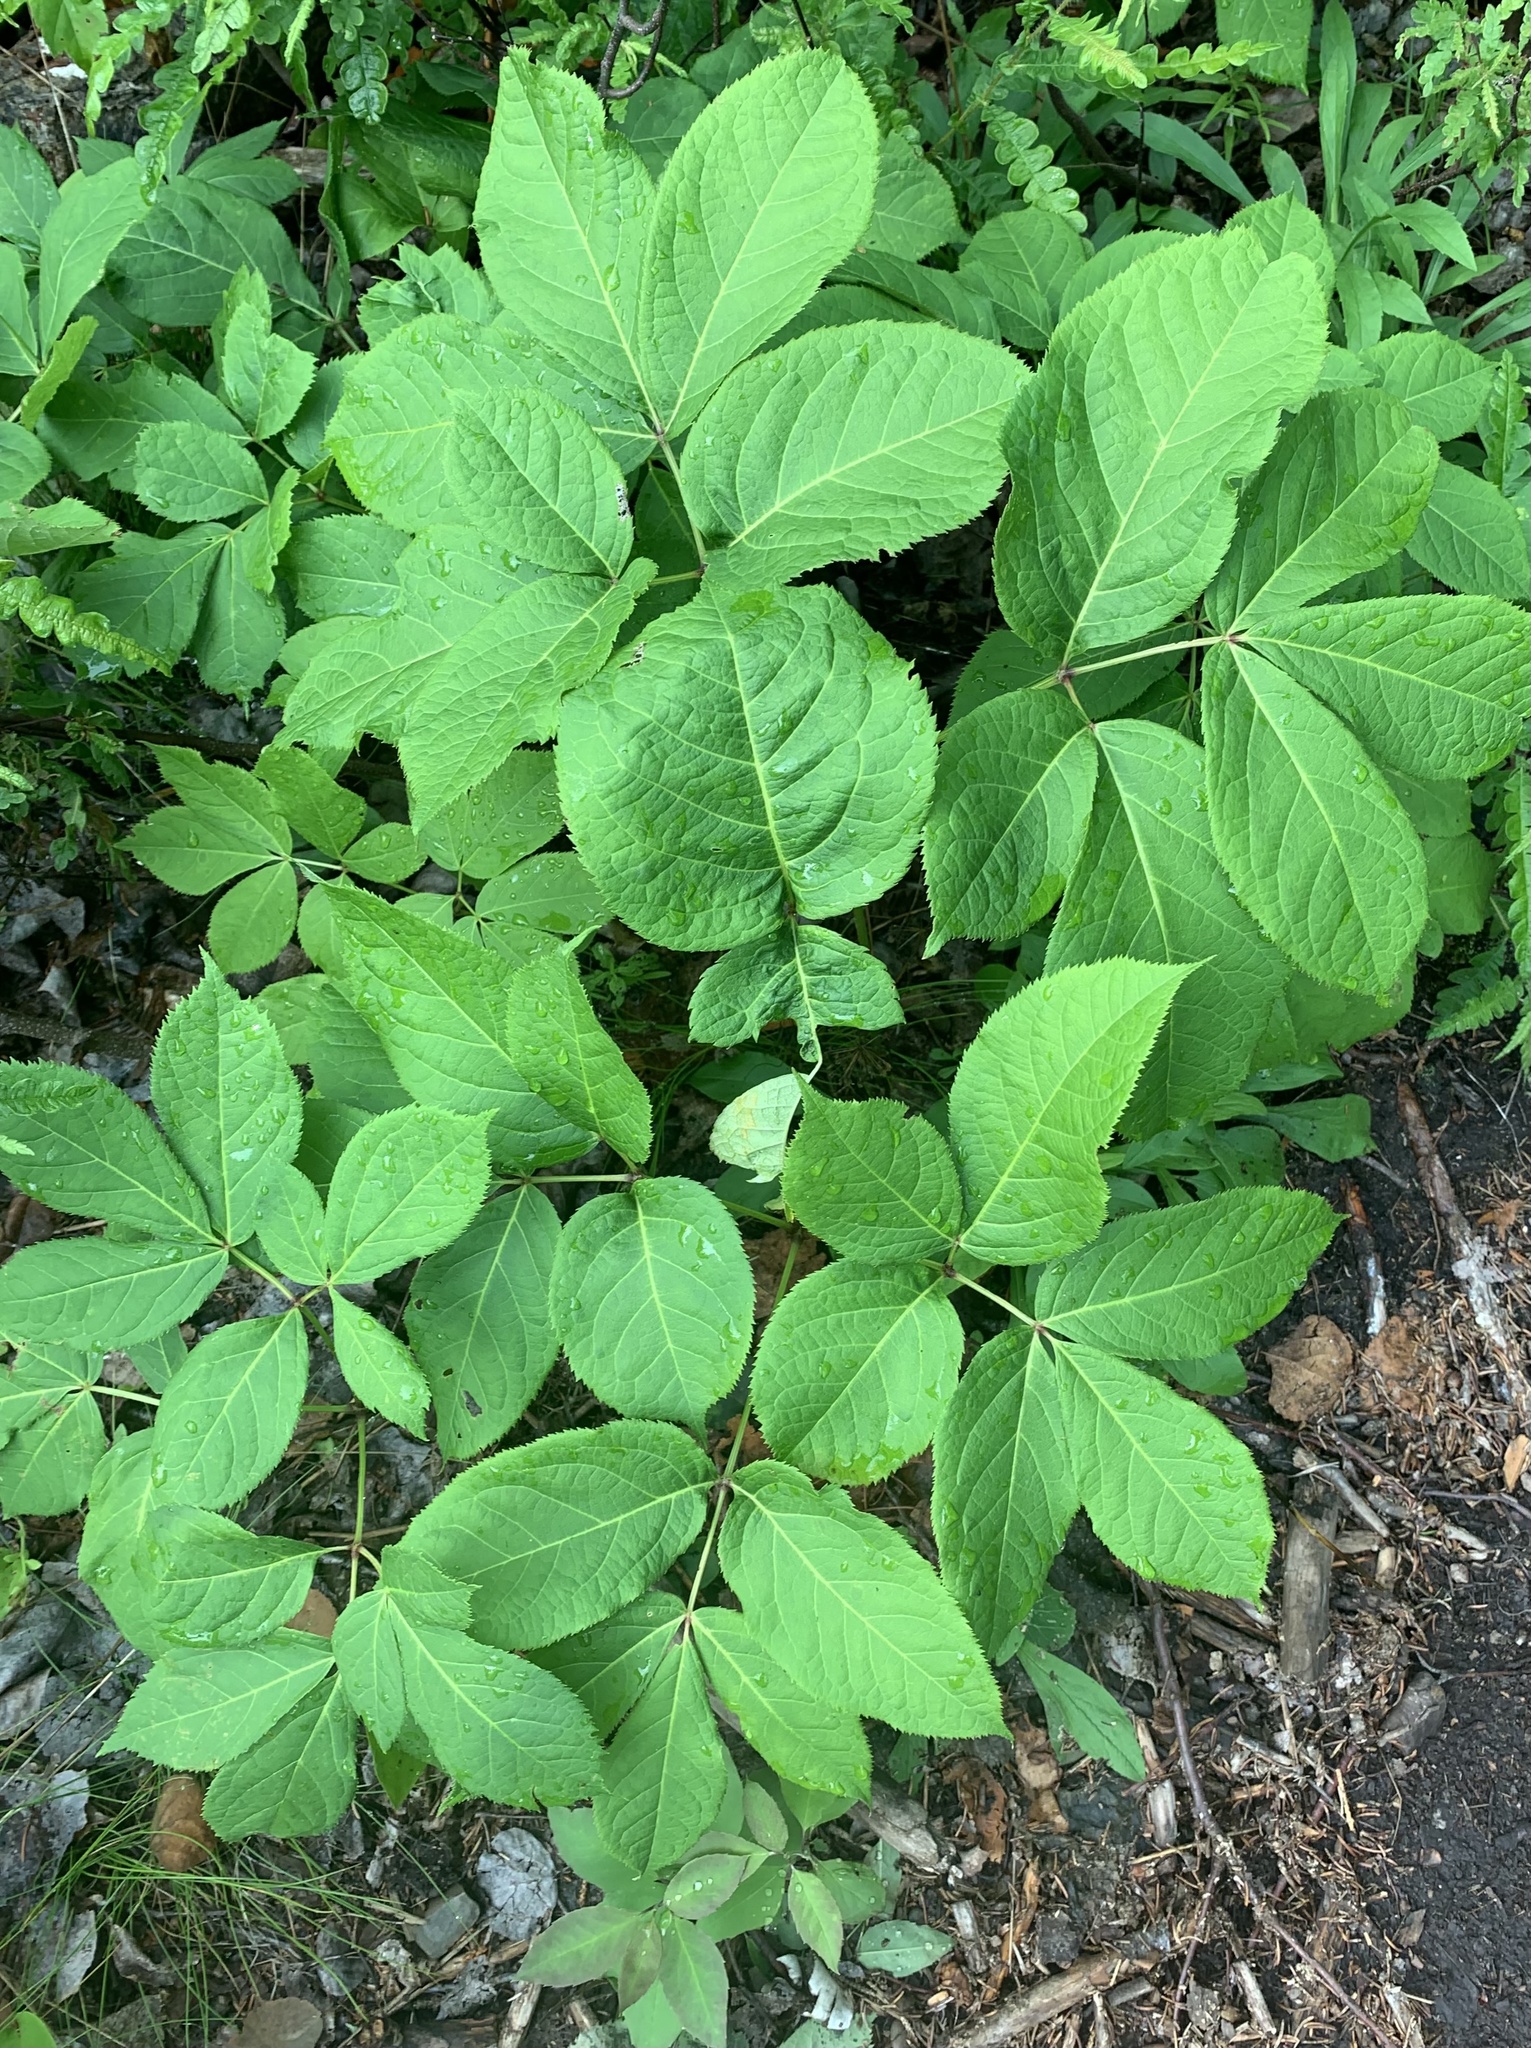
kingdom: Plantae
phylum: Tracheophyta
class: Magnoliopsida
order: Apiales
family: Araliaceae
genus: Aralia
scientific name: Aralia nudicaulis
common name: Wild sarsaparilla
